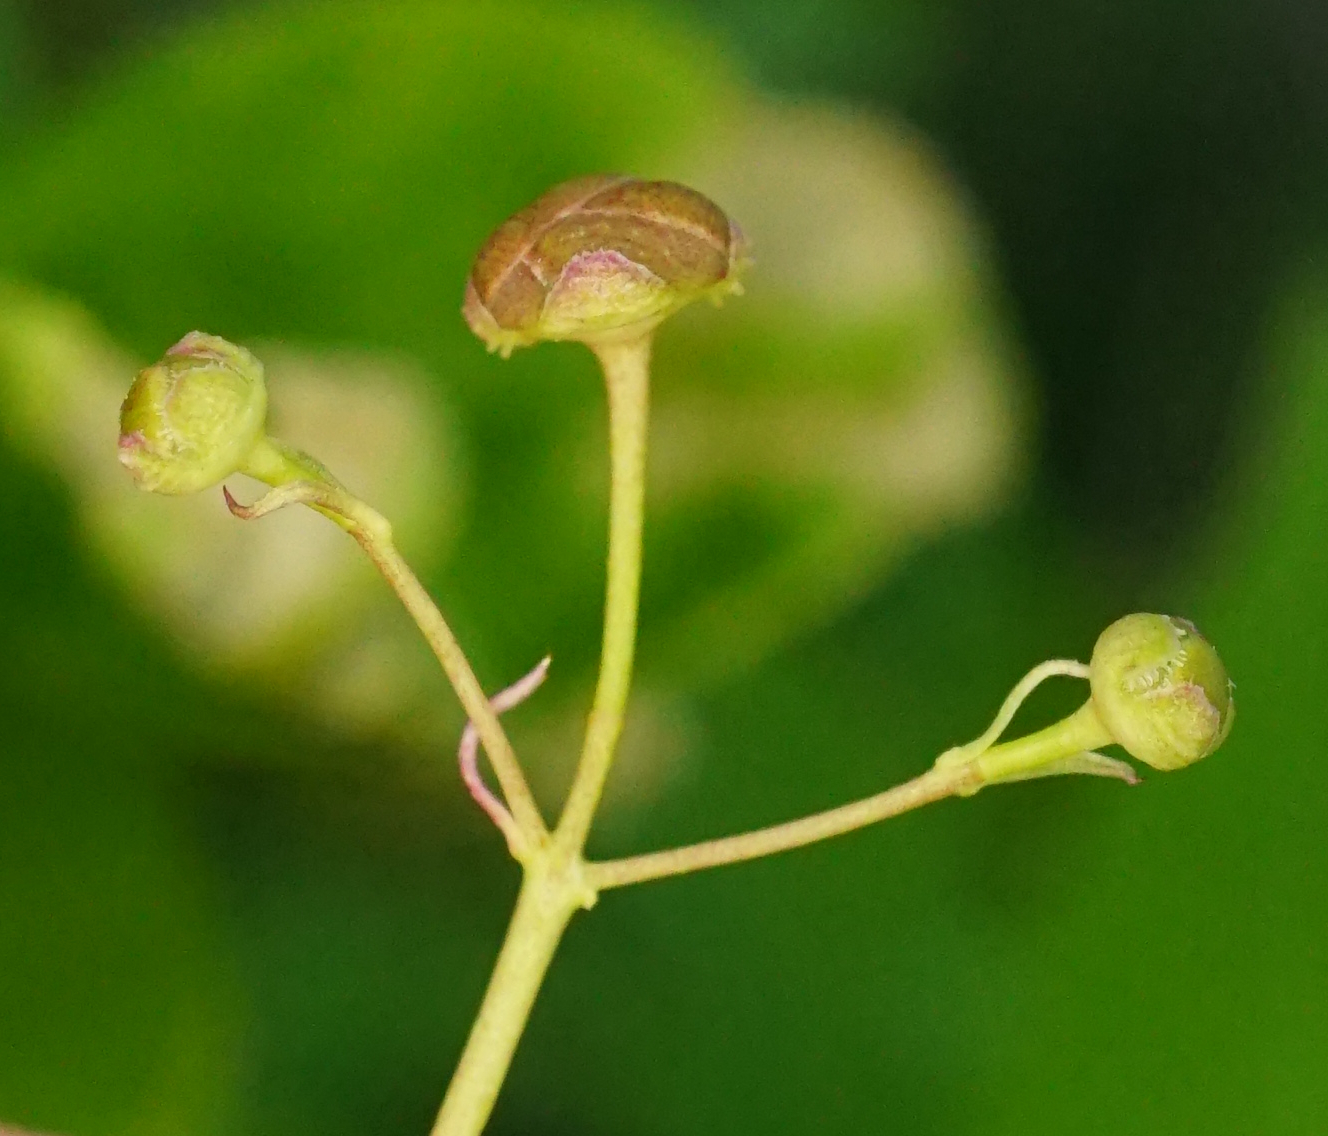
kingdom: Plantae
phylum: Tracheophyta
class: Magnoliopsida
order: Celastrales
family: Celastraceae
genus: Euonymus
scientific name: Euonymus verrucosus
